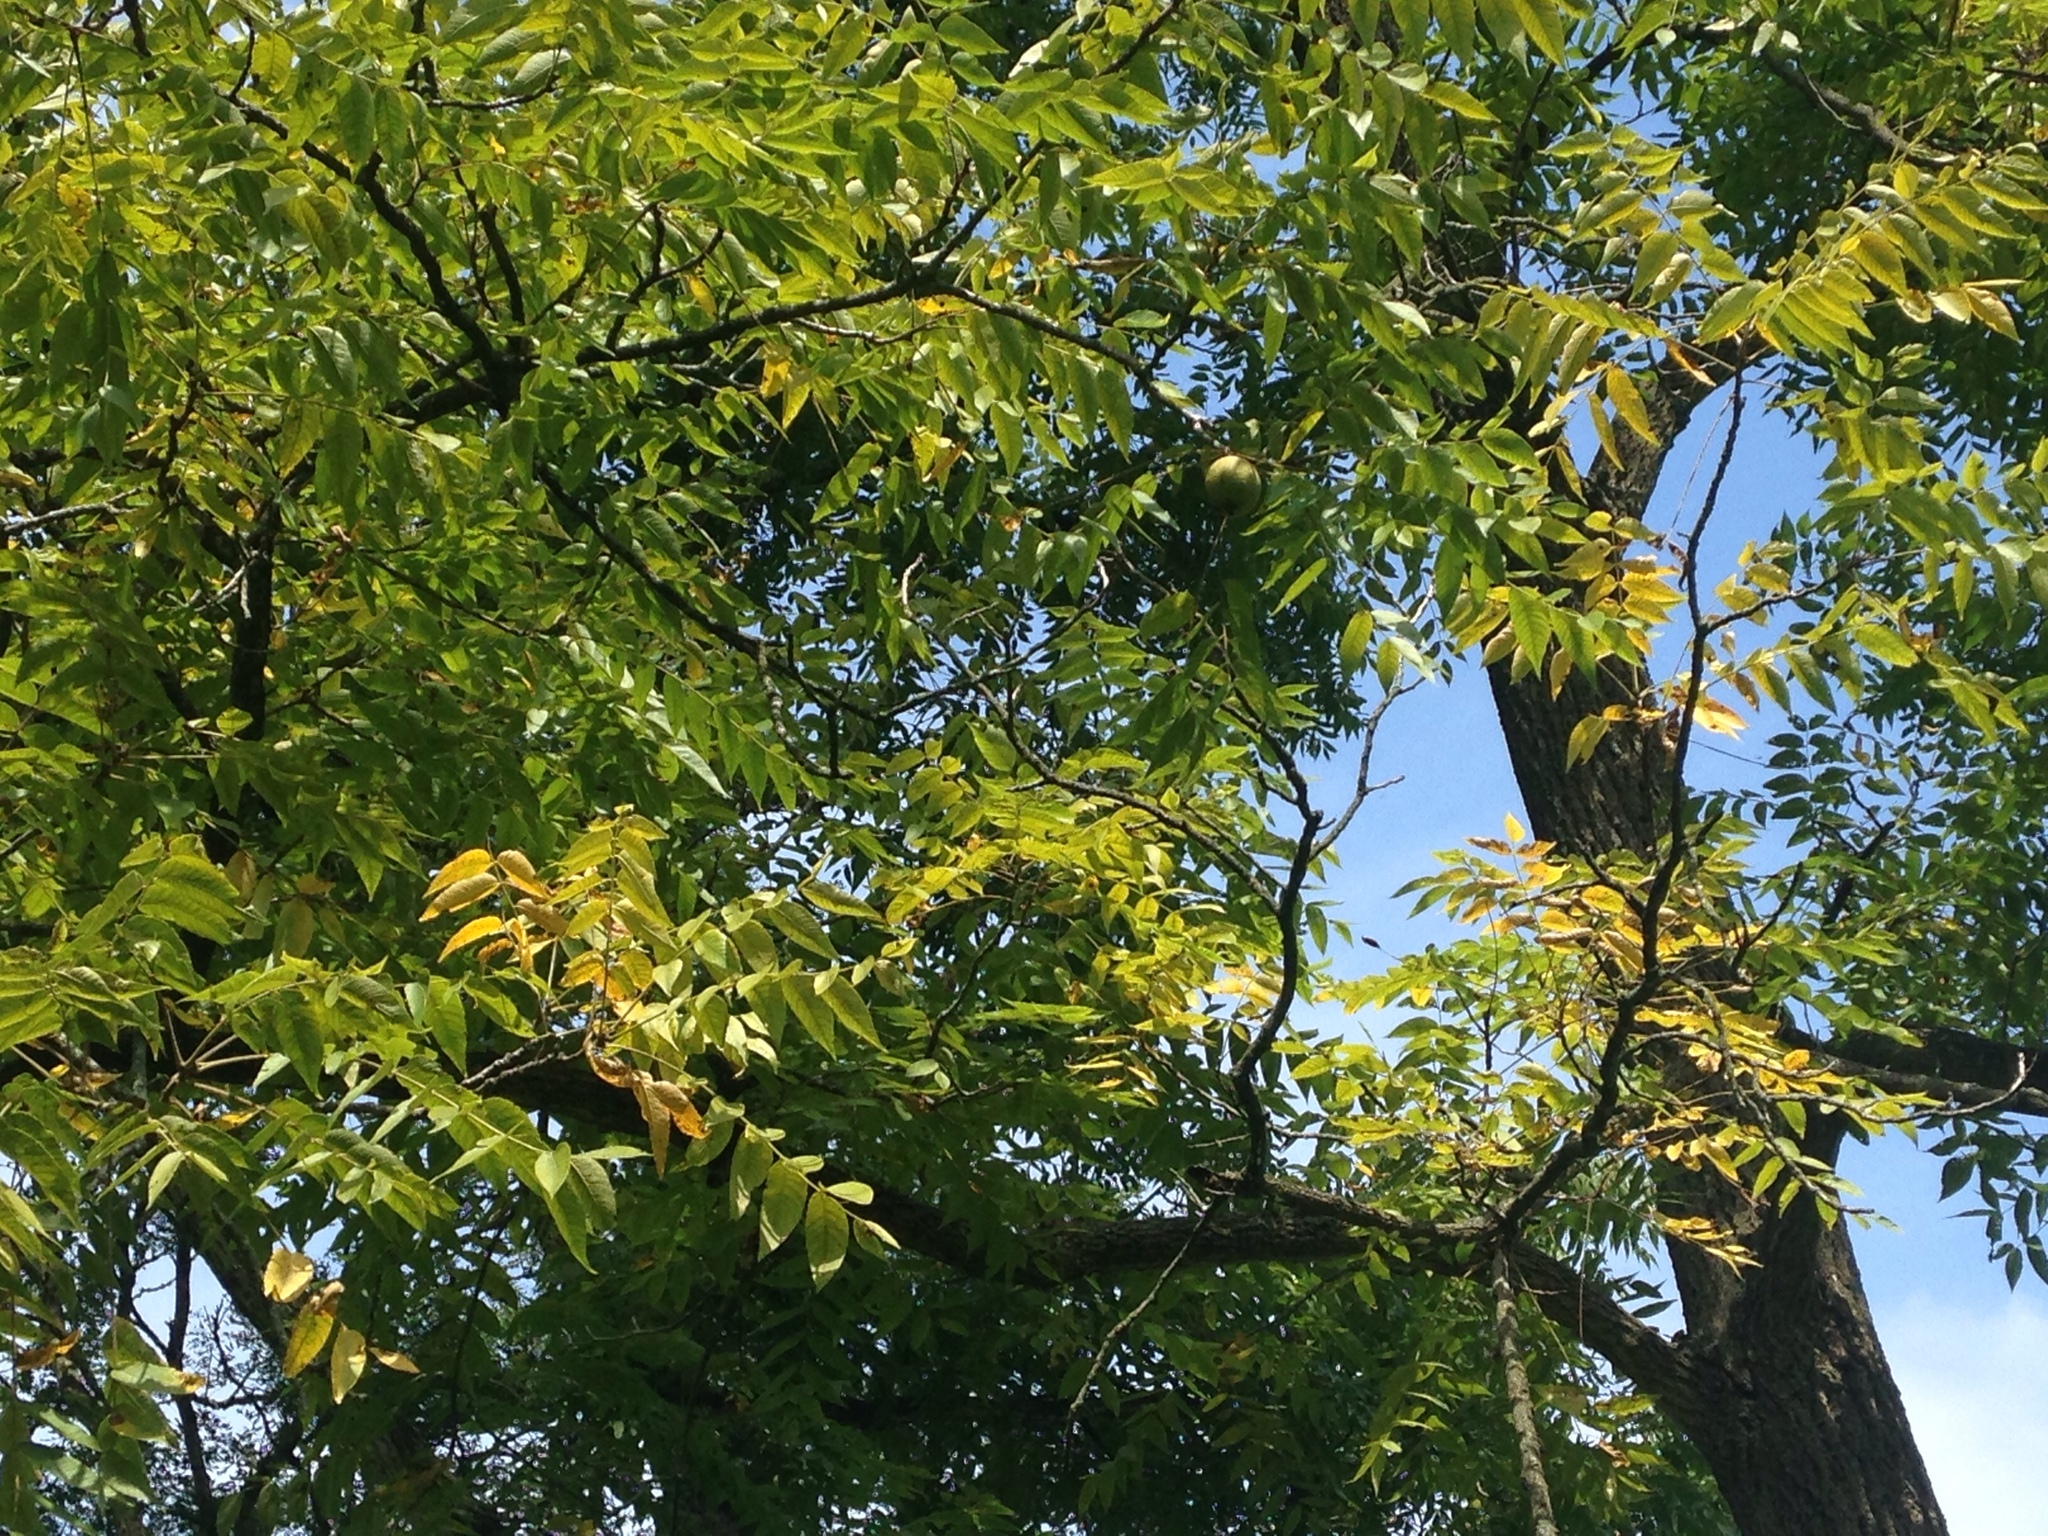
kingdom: Plantae
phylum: Tracheophyta
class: Magnoliopsida
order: Fagales
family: Juglandaceae
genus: Juglans
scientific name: Juglans nigra
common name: Black walnut
